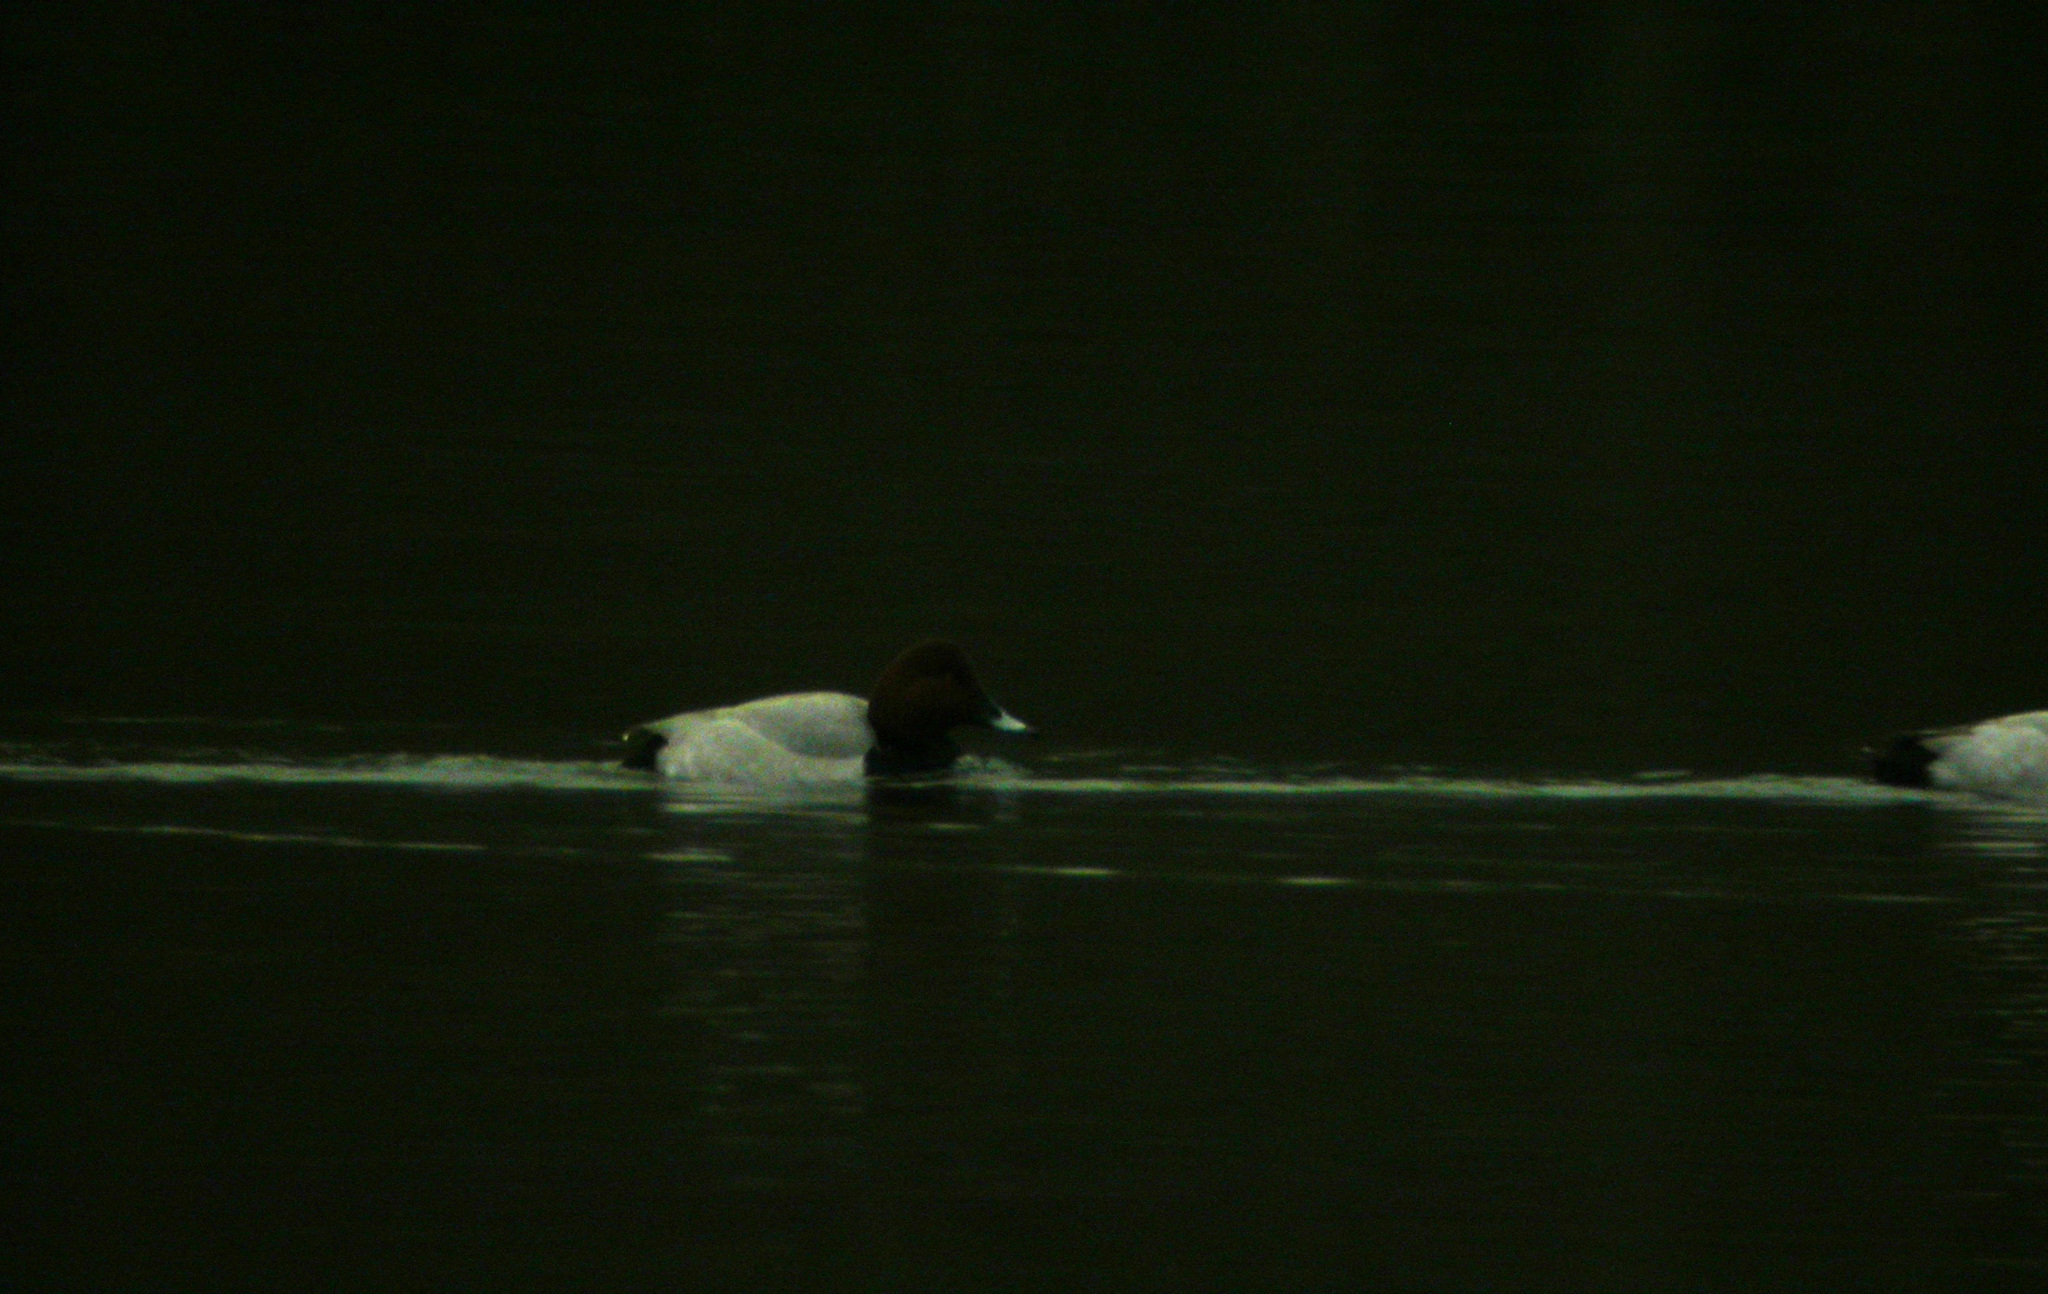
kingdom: Animalia
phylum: Chordata
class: Aves
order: Anseriformes
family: Anatidae
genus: Aythya
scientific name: Aythya ferina
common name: Common pochard
